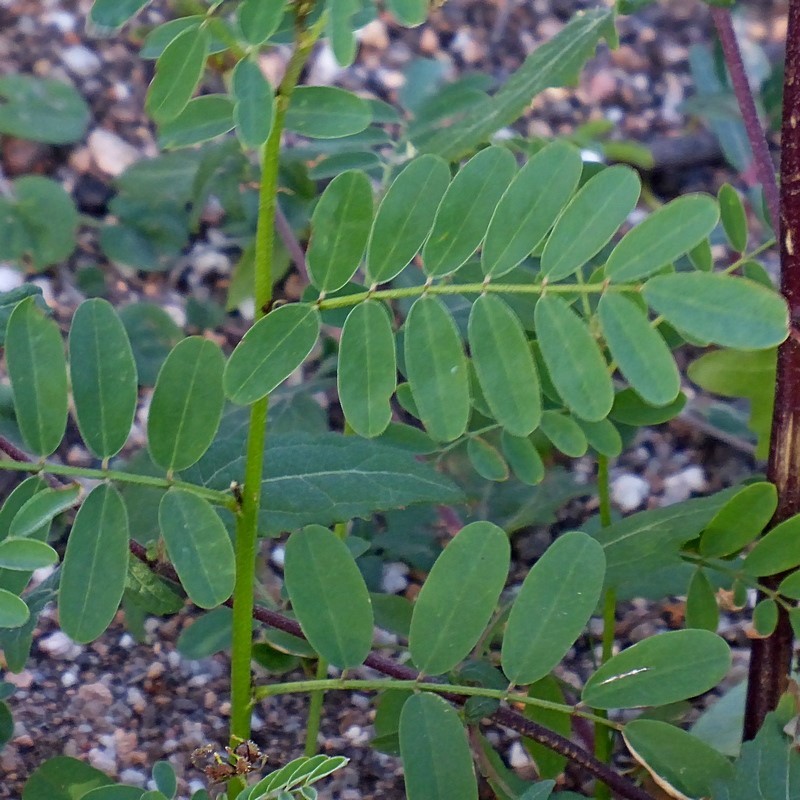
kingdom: Plantae
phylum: Tracheophyta
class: Magnoliopsida
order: Fabales
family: Fabaceae
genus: Indigofera
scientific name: Indigofera australis
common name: Australian indigo
